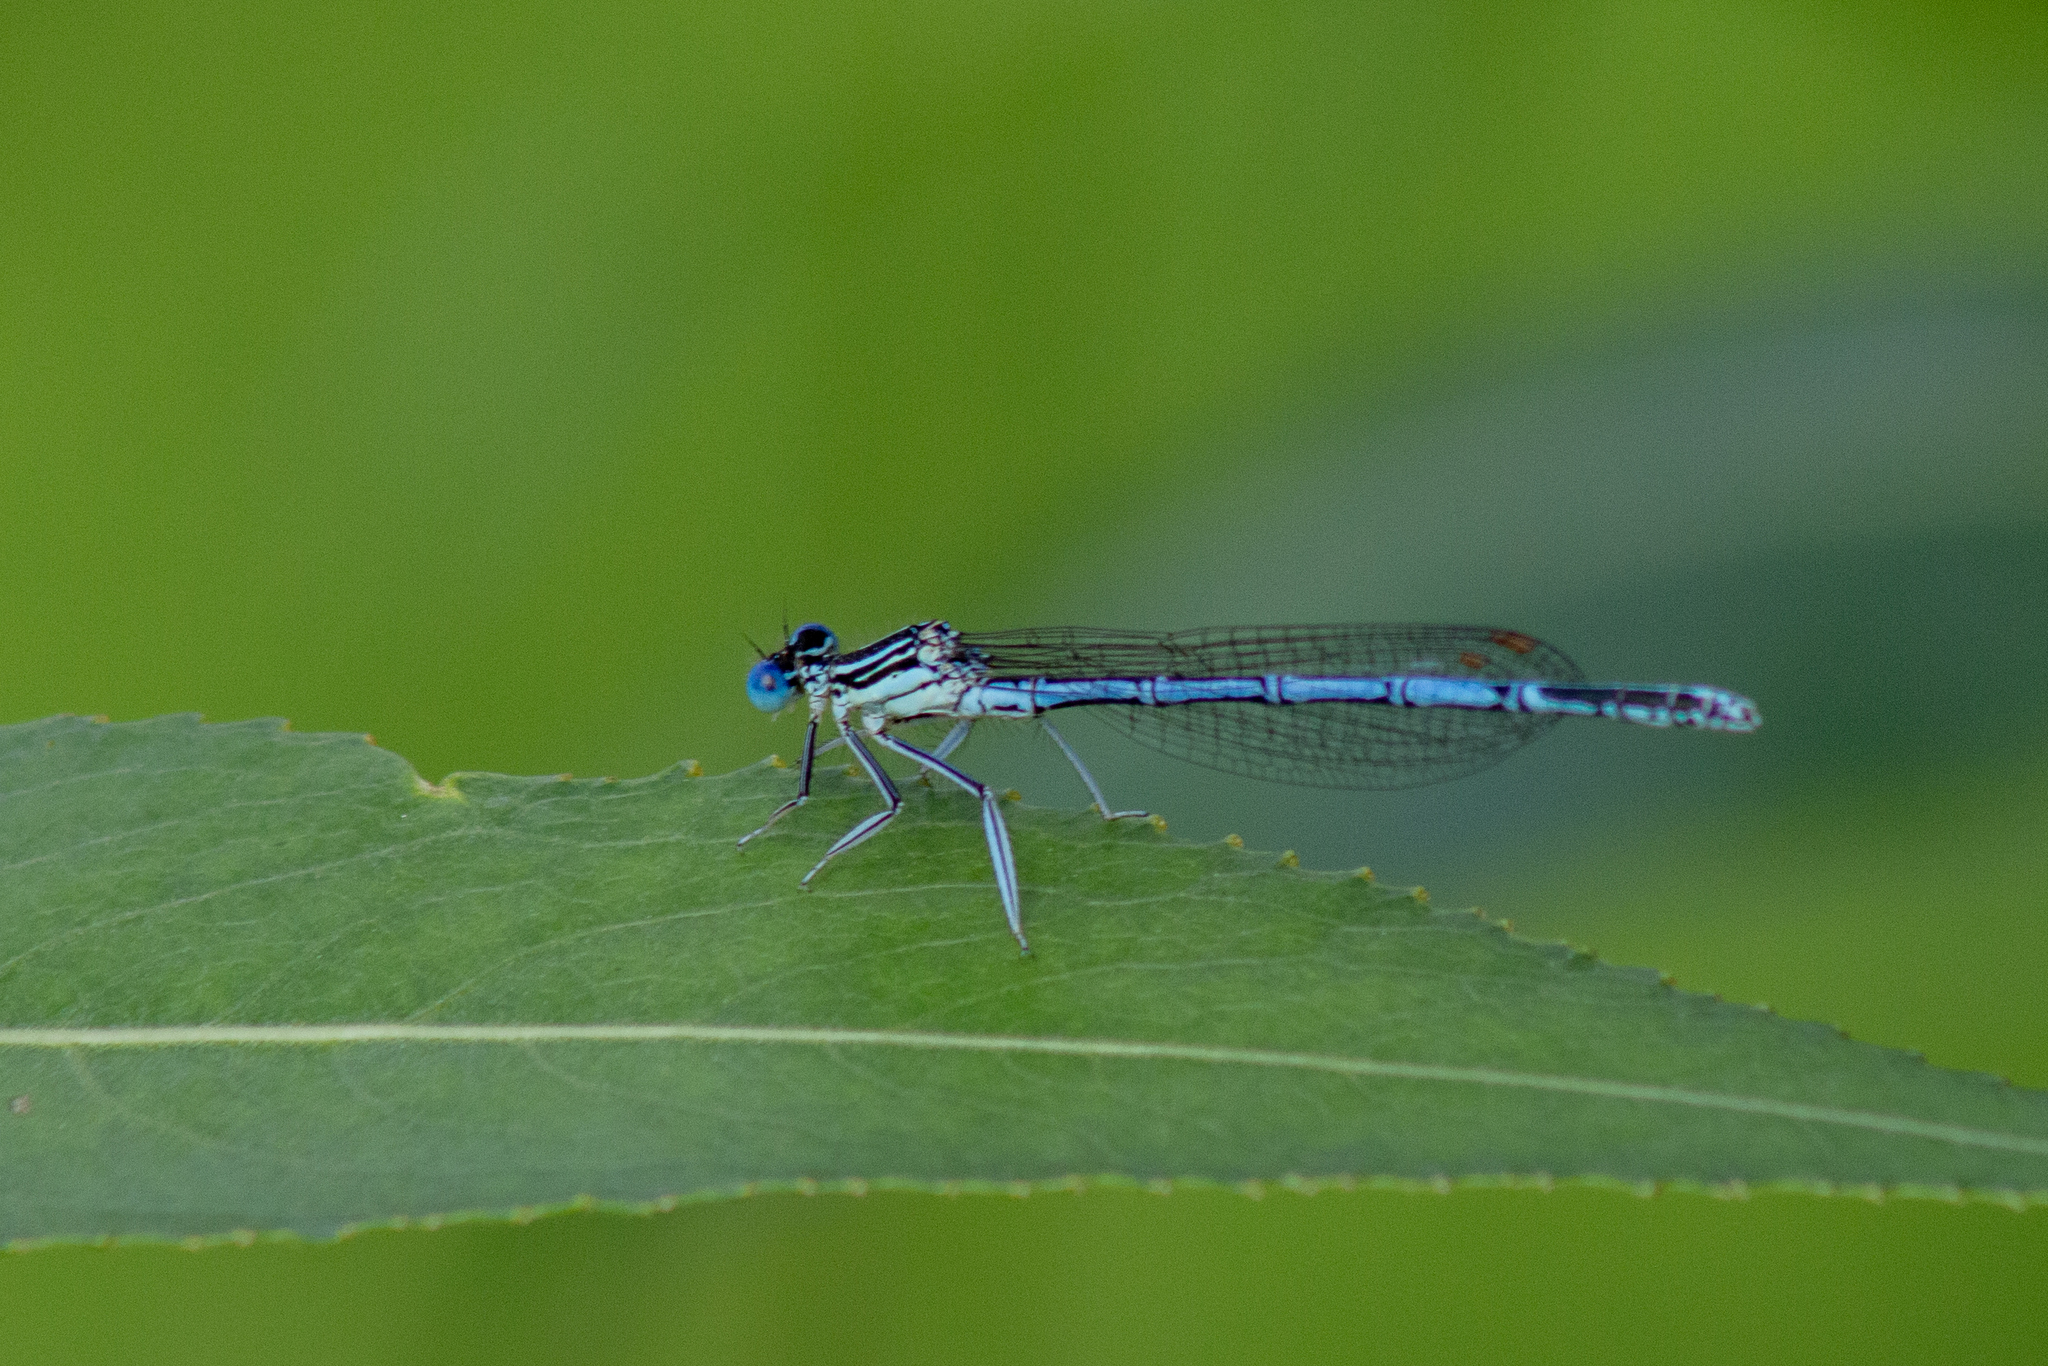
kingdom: Animalia
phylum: Arthropoda
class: Insecta
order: Odonata
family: Platycnemididae
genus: Platycnemis
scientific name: Platycnemis pennipes
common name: White-legged damselfly
